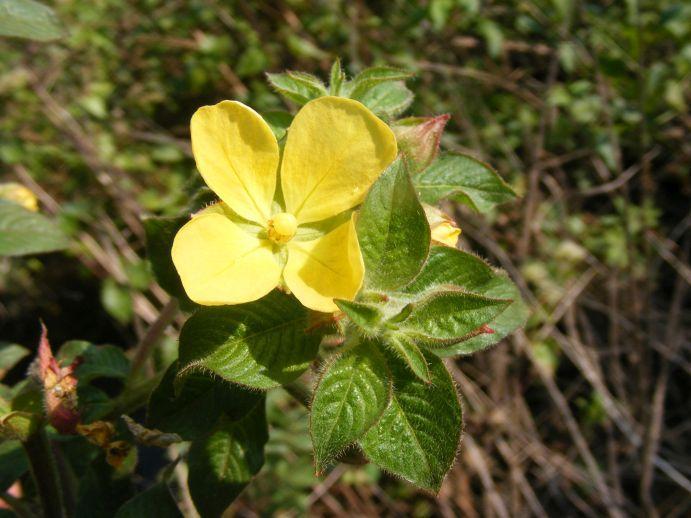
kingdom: Plantae
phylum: Tracheophyta
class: Magnoliopsida
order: Myrtales
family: Onagraceae
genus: Ludwigia
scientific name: Ludwigia octovalvis
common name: Water-primrose
